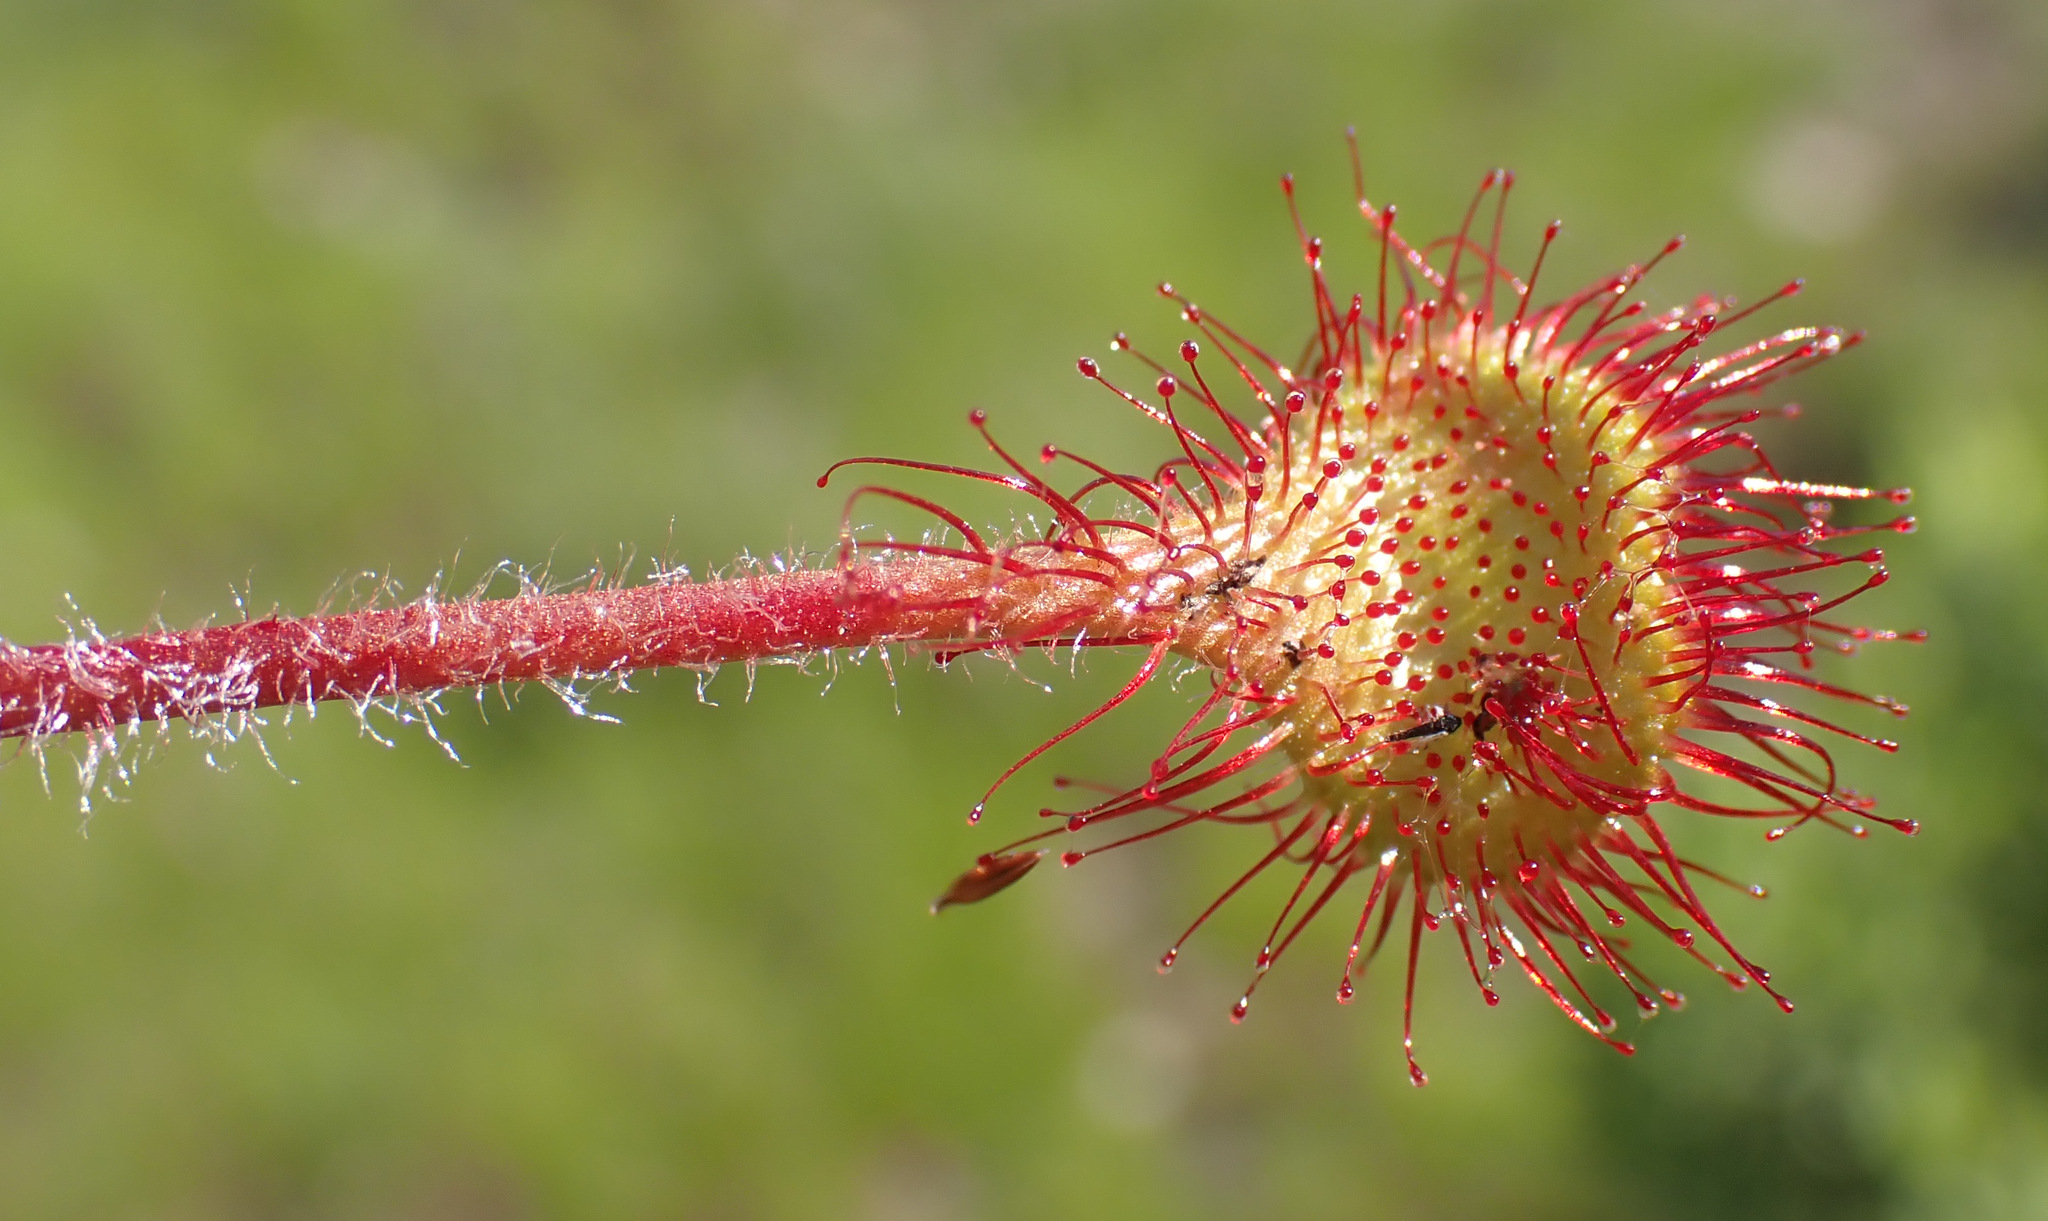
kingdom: Plantae
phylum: Tracheophyta
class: Magnoliopsida
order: Caryophyllales
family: Droseraceae
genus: Drosera
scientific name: Drosera rotundifolia
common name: Round-leaved sundew
